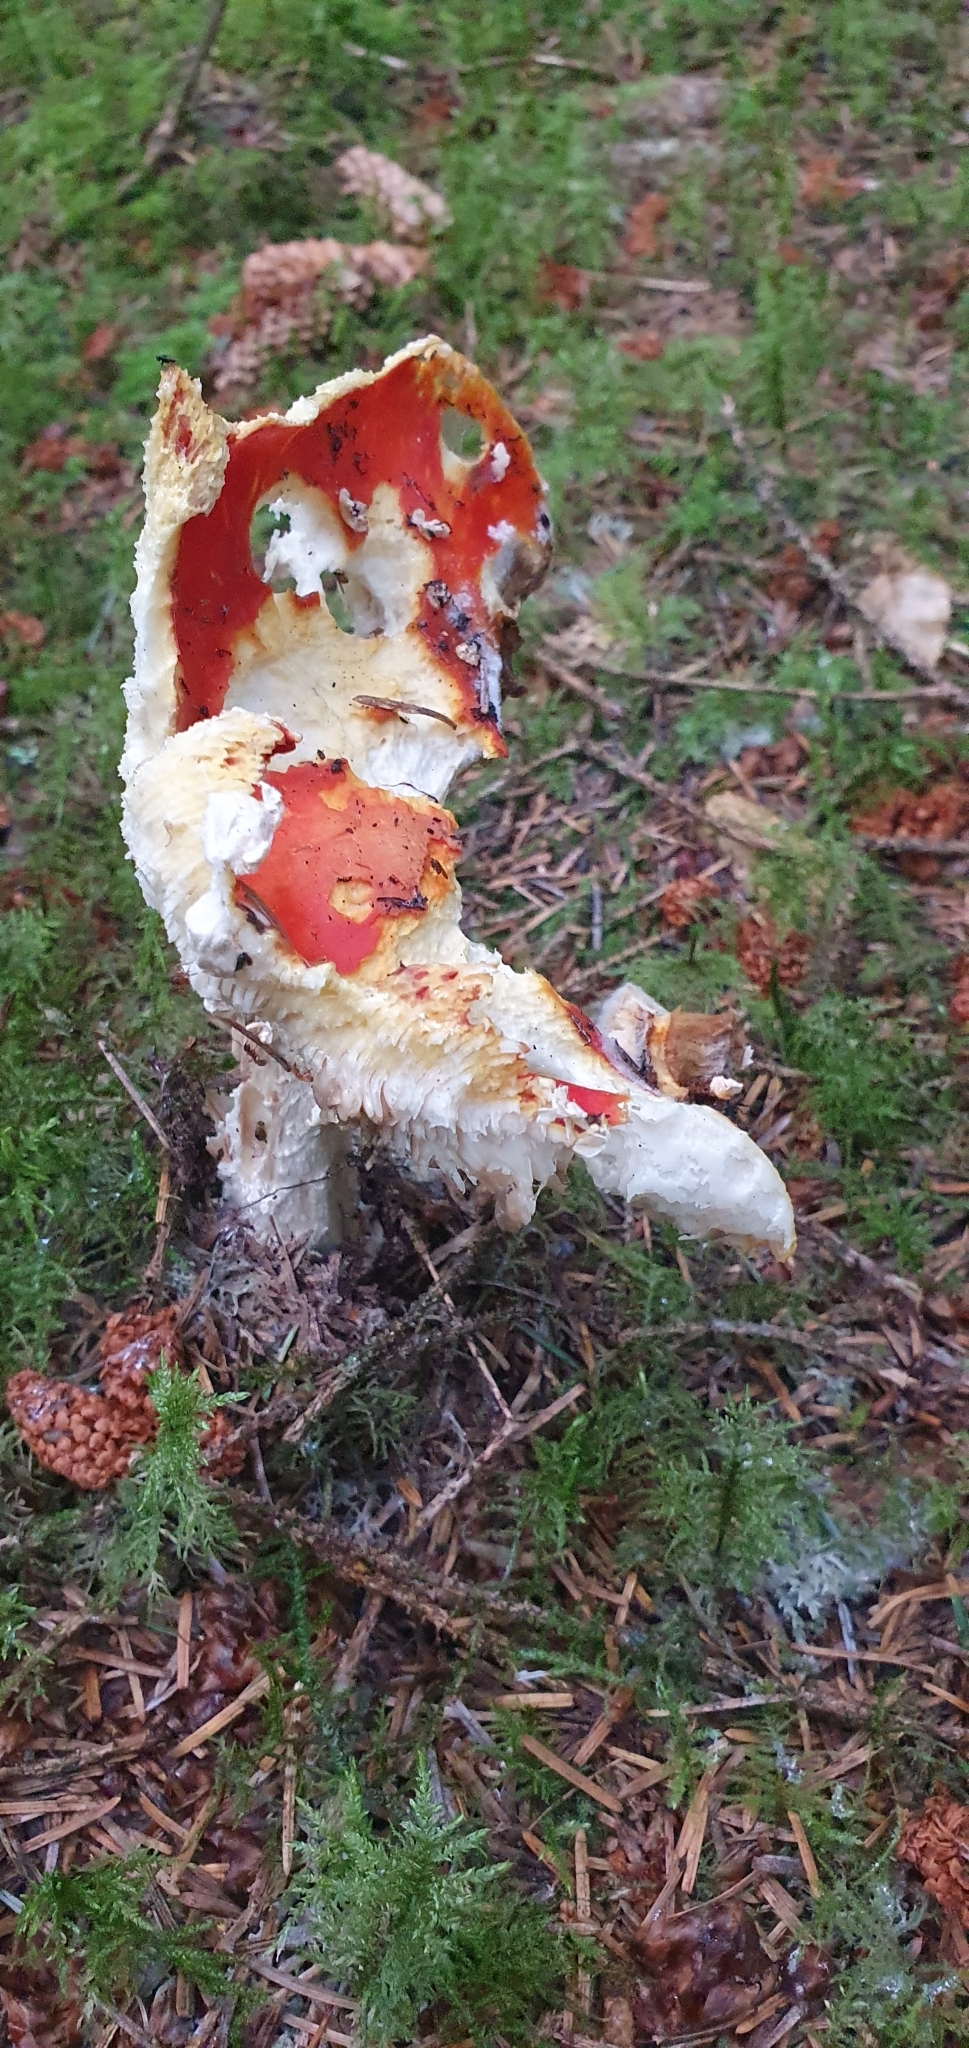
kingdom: Fungi
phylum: Basidiomycota
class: Agaricomycetes
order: Agaricales
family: Amanitaceae
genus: Amanita
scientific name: Amanita muscaria
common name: Fly agaric
